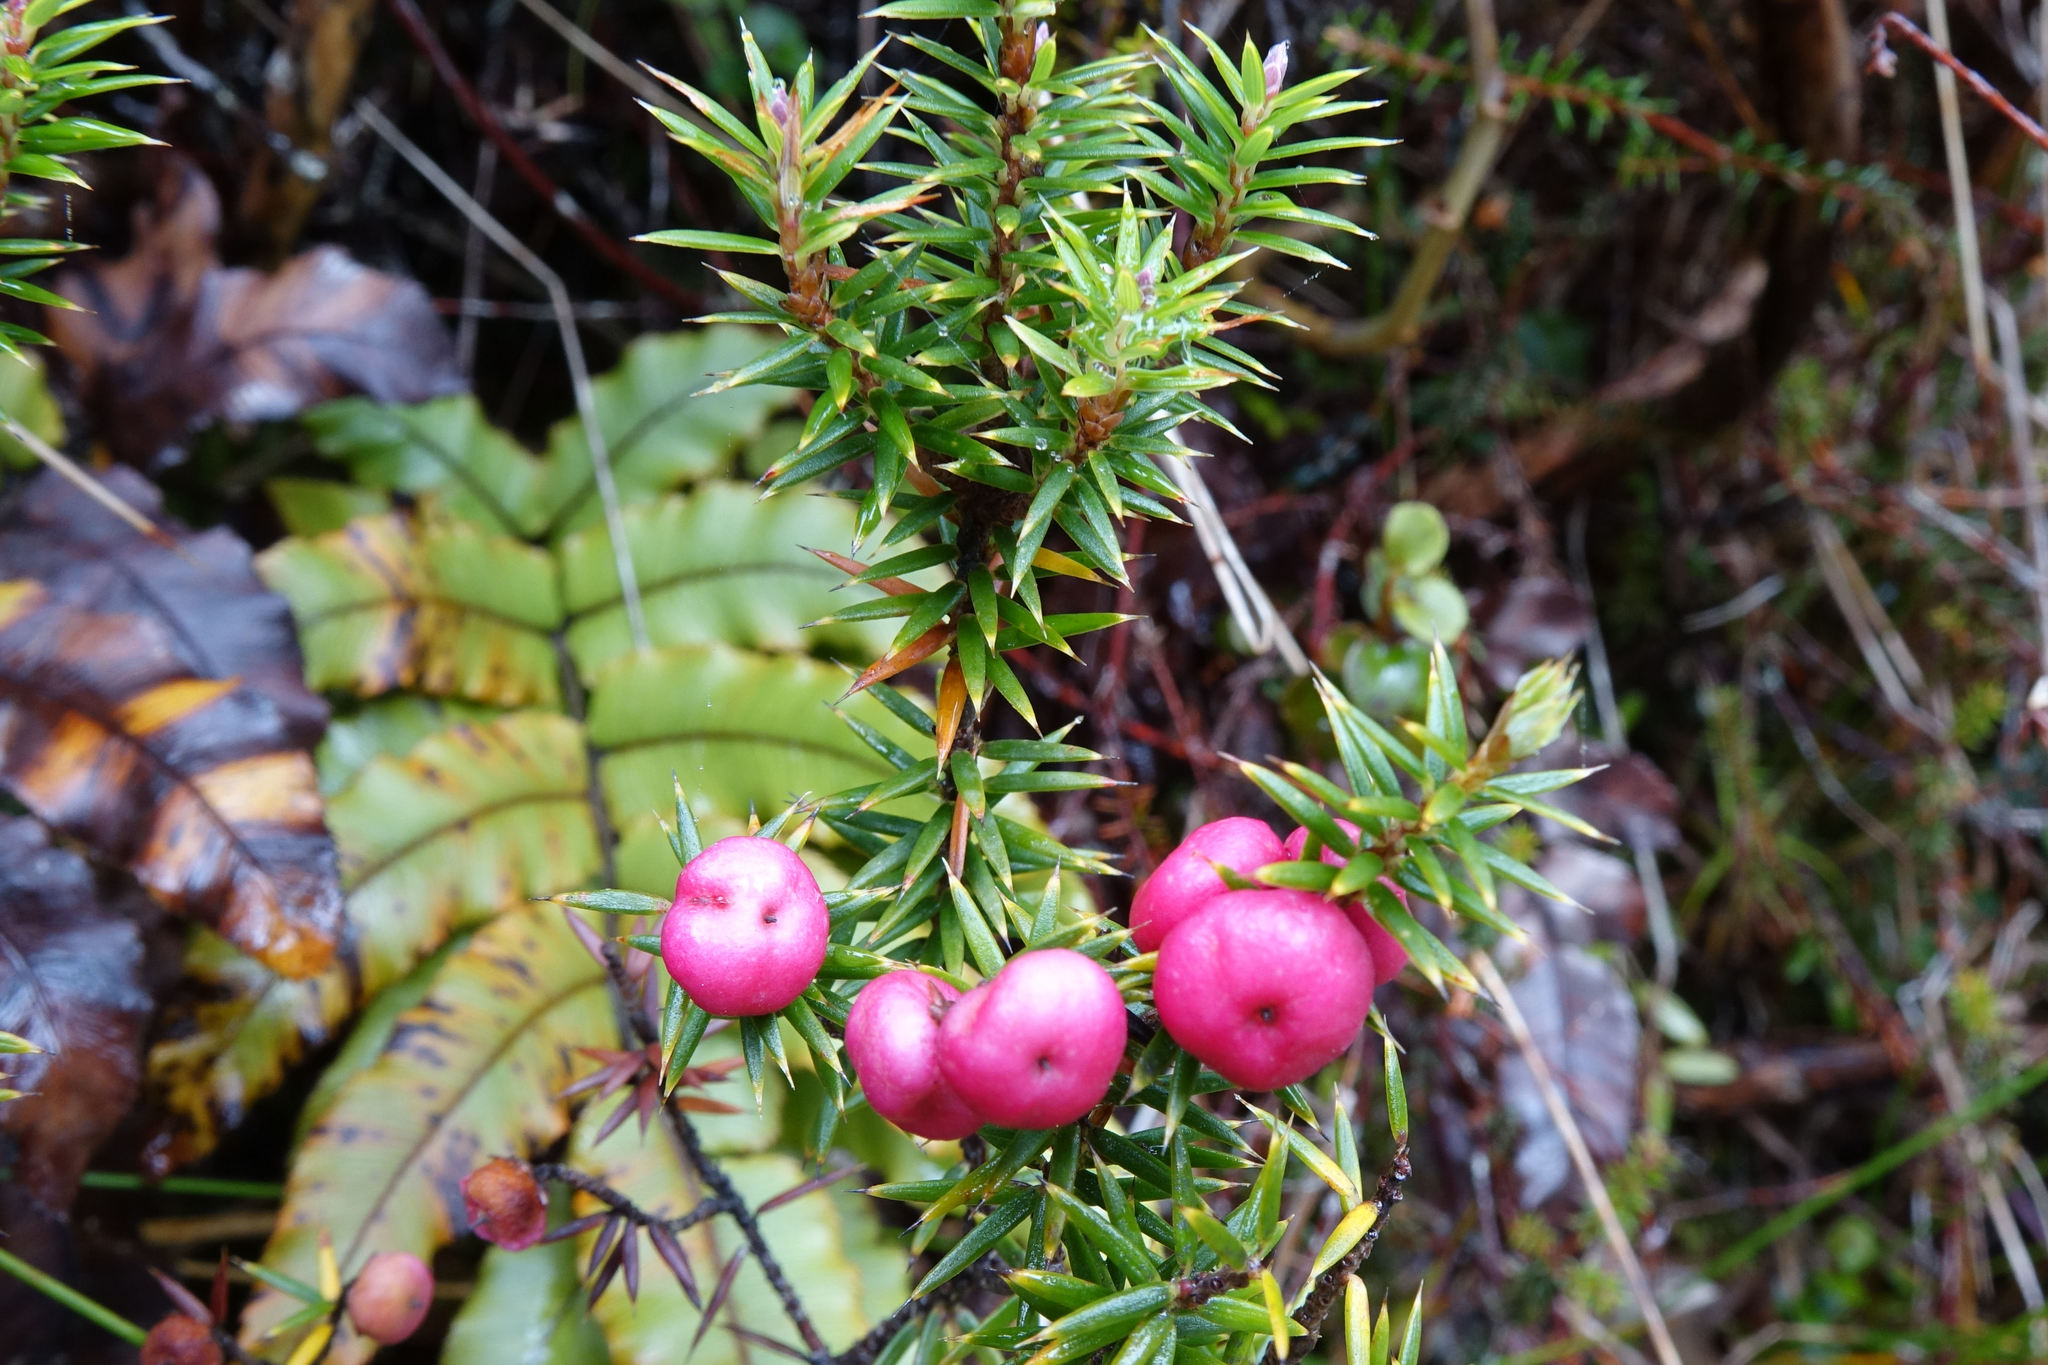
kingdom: Plantae
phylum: Tracheophyta
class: Magnoliopsida
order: Ericales
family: Ericaceae
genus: Leptecophylla
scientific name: Leptecophylla juniperina
